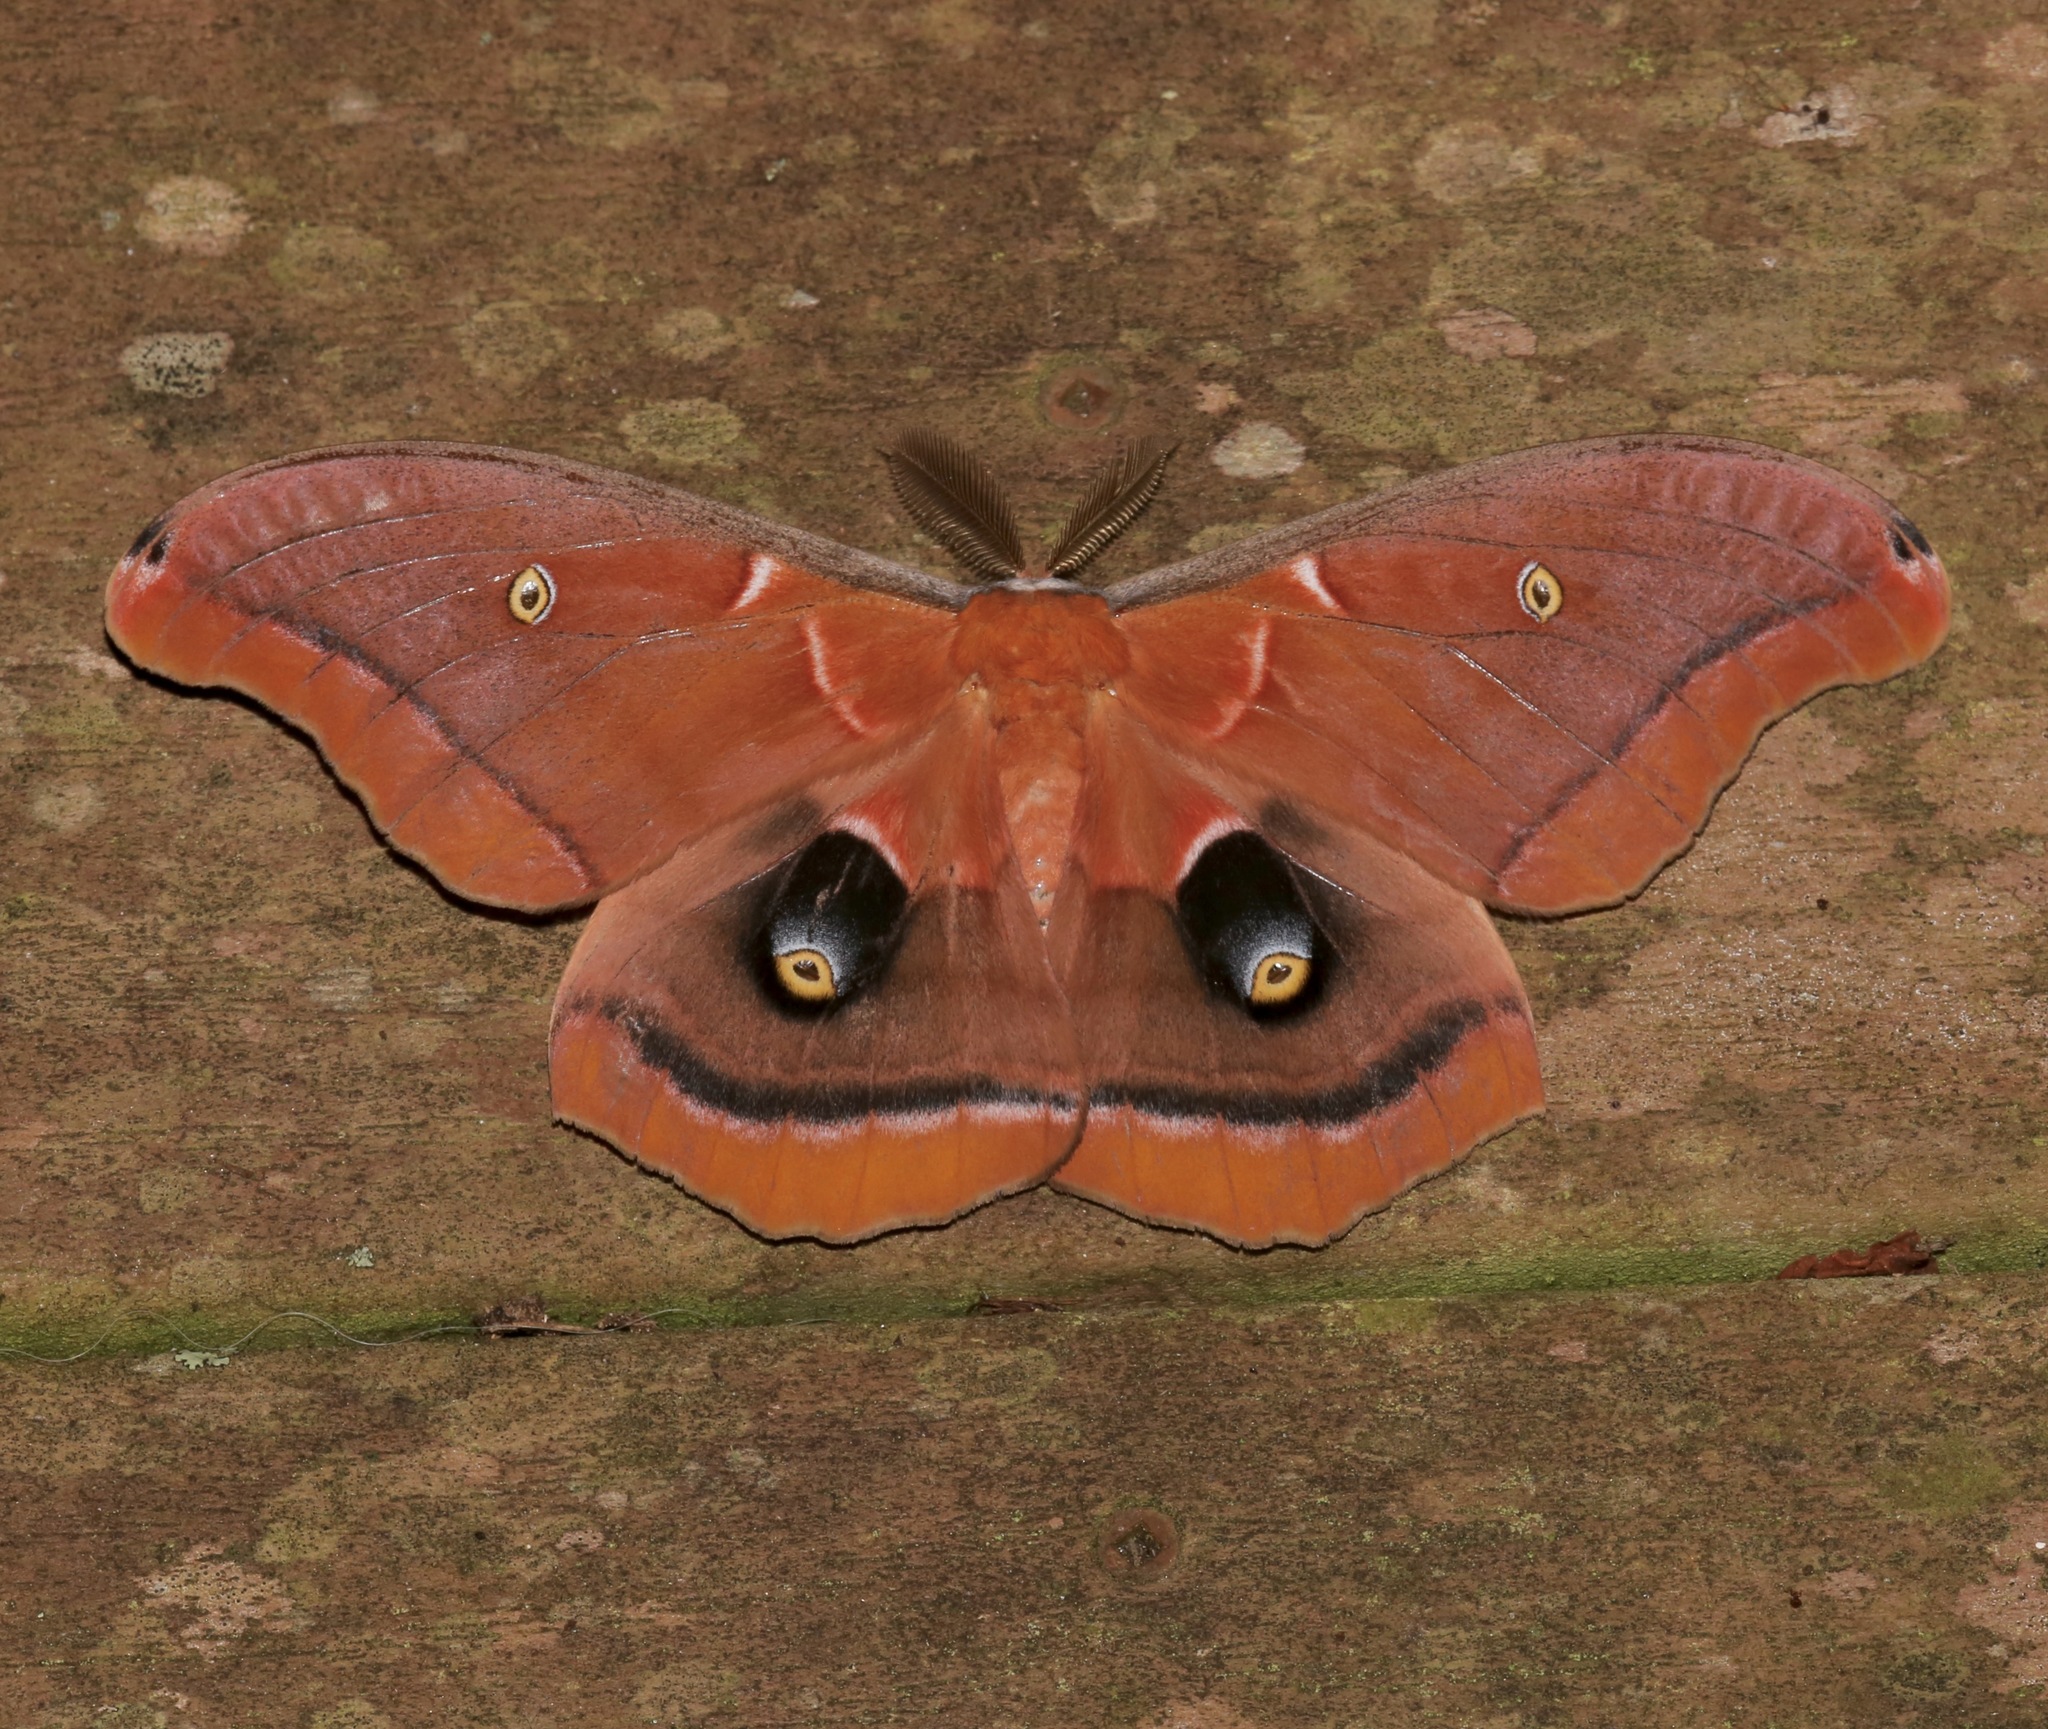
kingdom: Animalia
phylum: Arthropoda
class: Insecta
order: Lepidoptera
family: Saturniidae
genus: Antheraea
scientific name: Antheraea polyphemus
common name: Polyphemus moth
